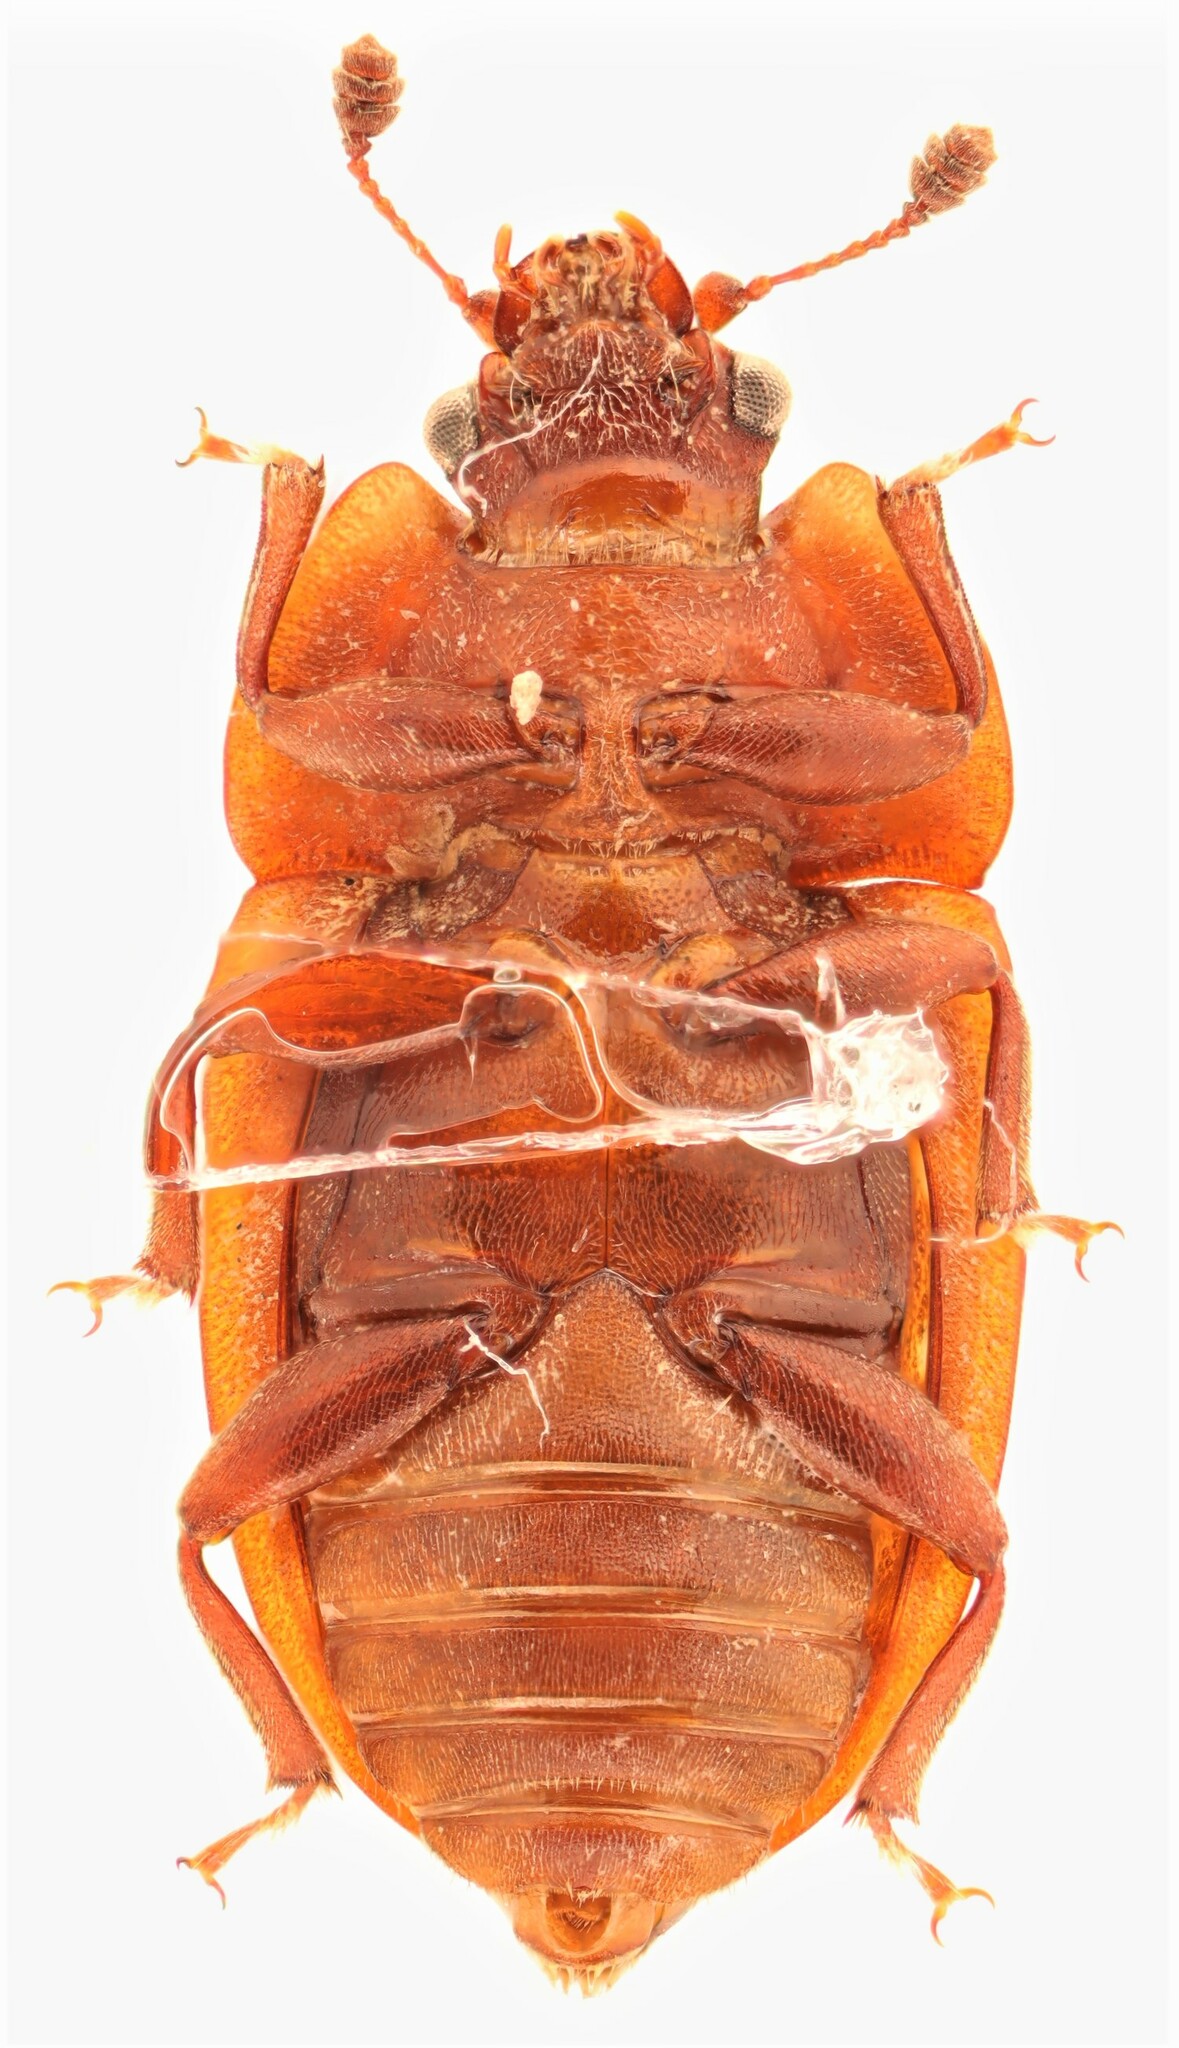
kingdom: Animalia
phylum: Arthropoda
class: Insecta
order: Coleoptera
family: Nitidulidae
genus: Soronia
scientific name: Soronia guttulata
